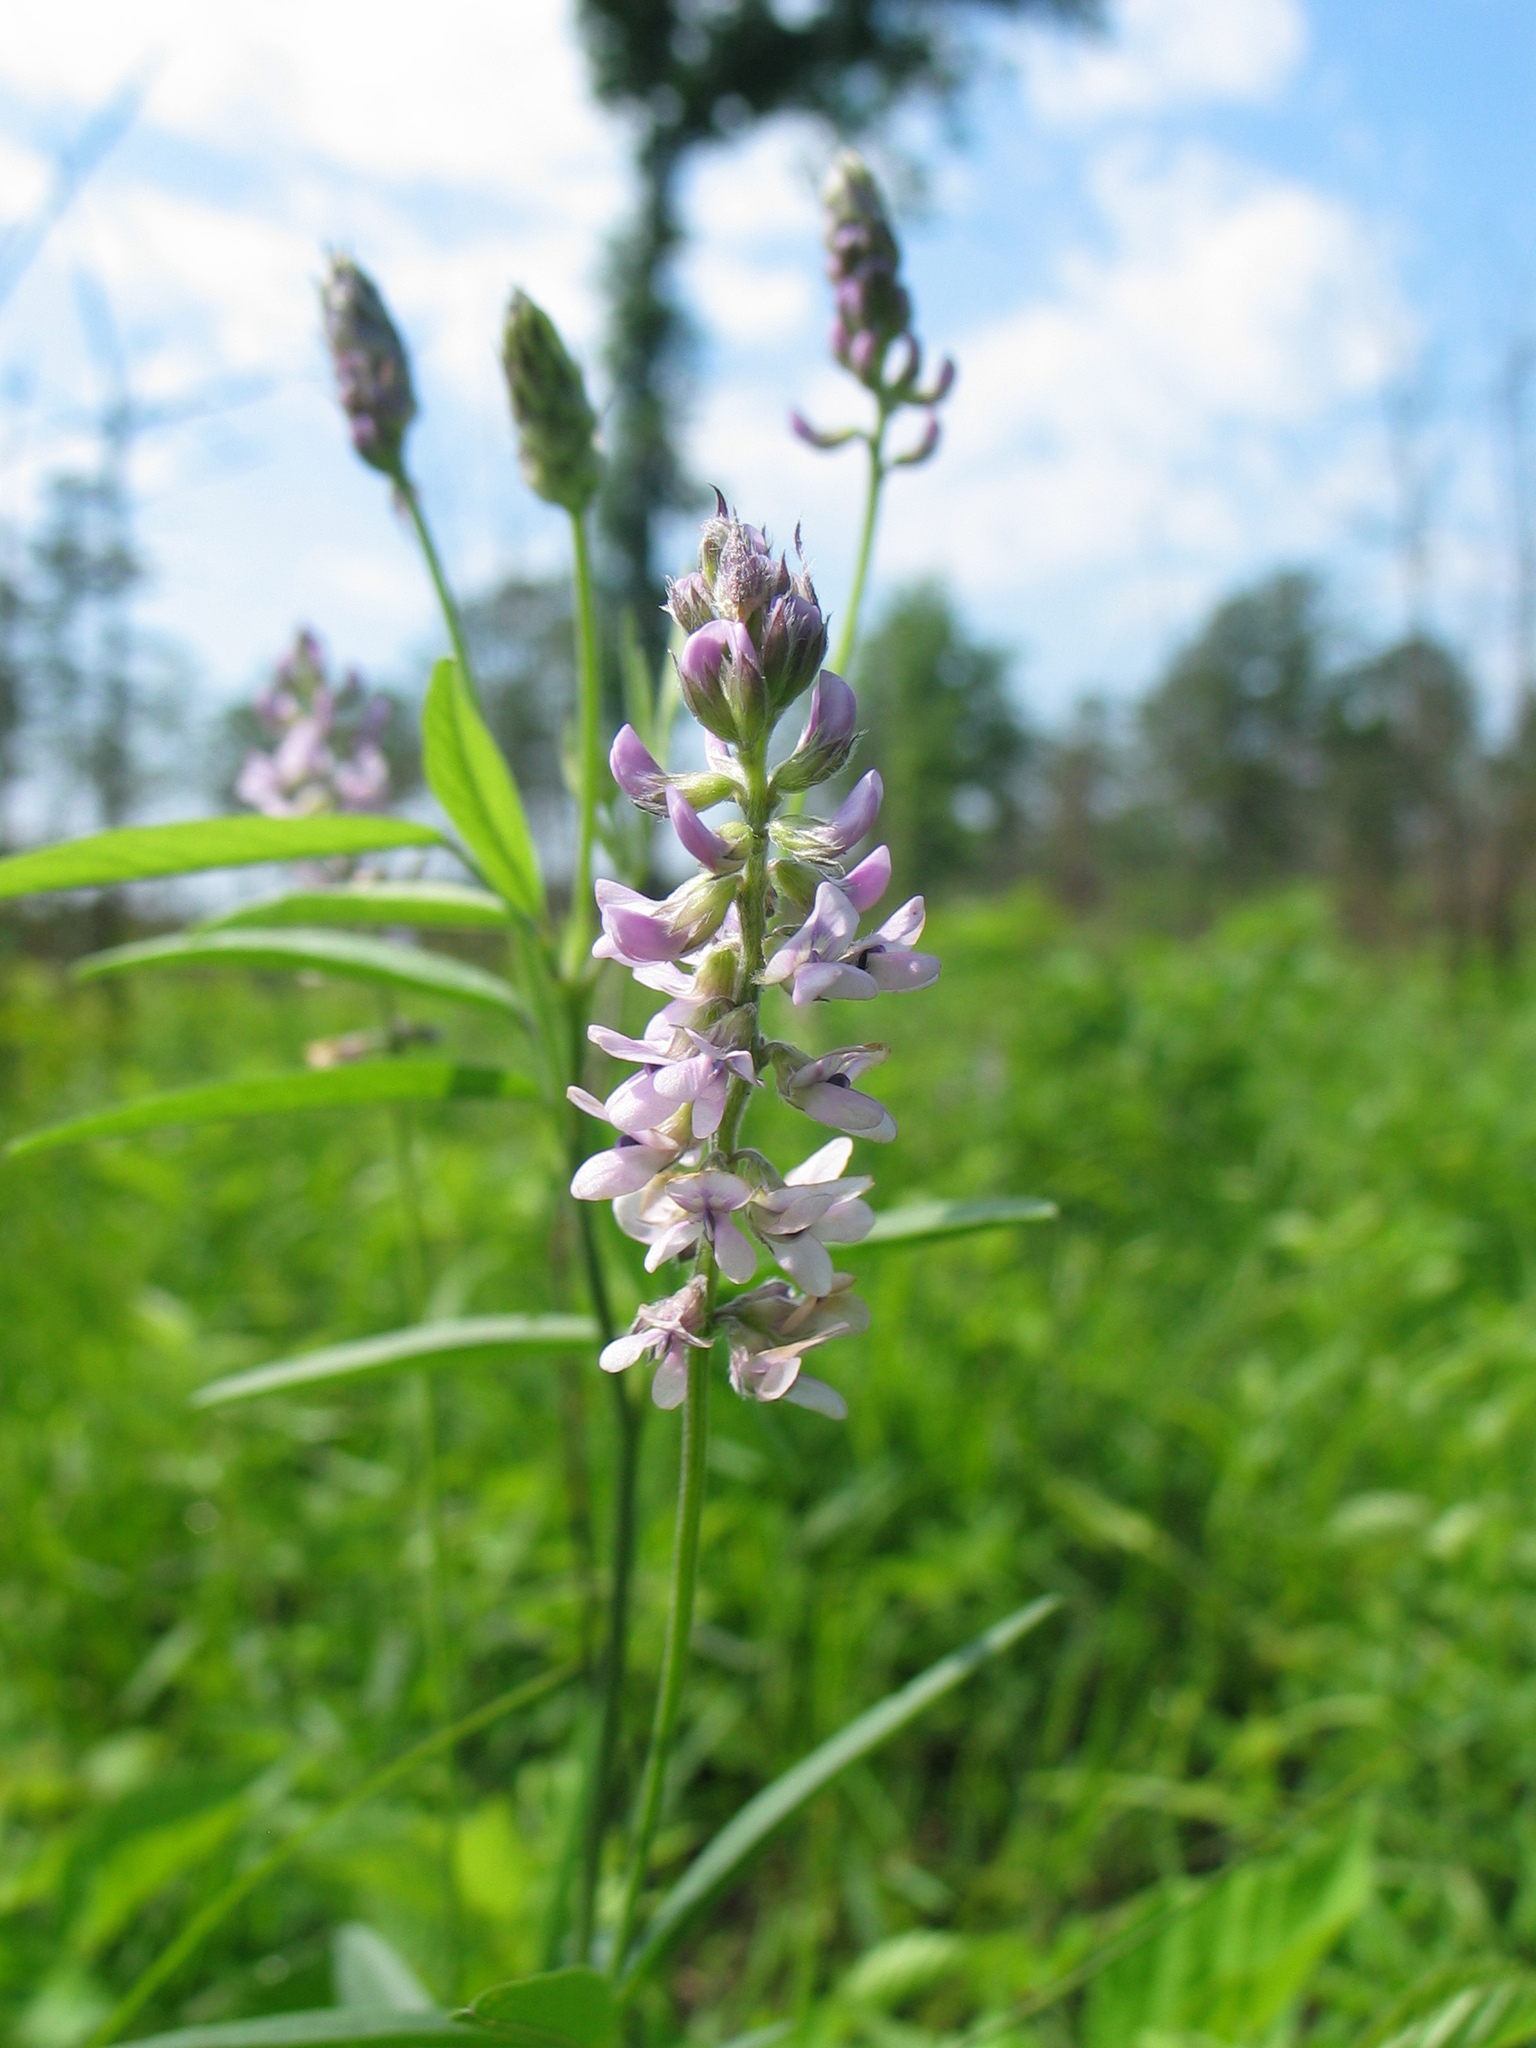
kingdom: Plantae
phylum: Tracheophyta
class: Magnoliopsida
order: Fabales
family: Fabaceae
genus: Orbexilum
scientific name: Orbexilum pedunculatum
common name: Sampson's snakeroot
